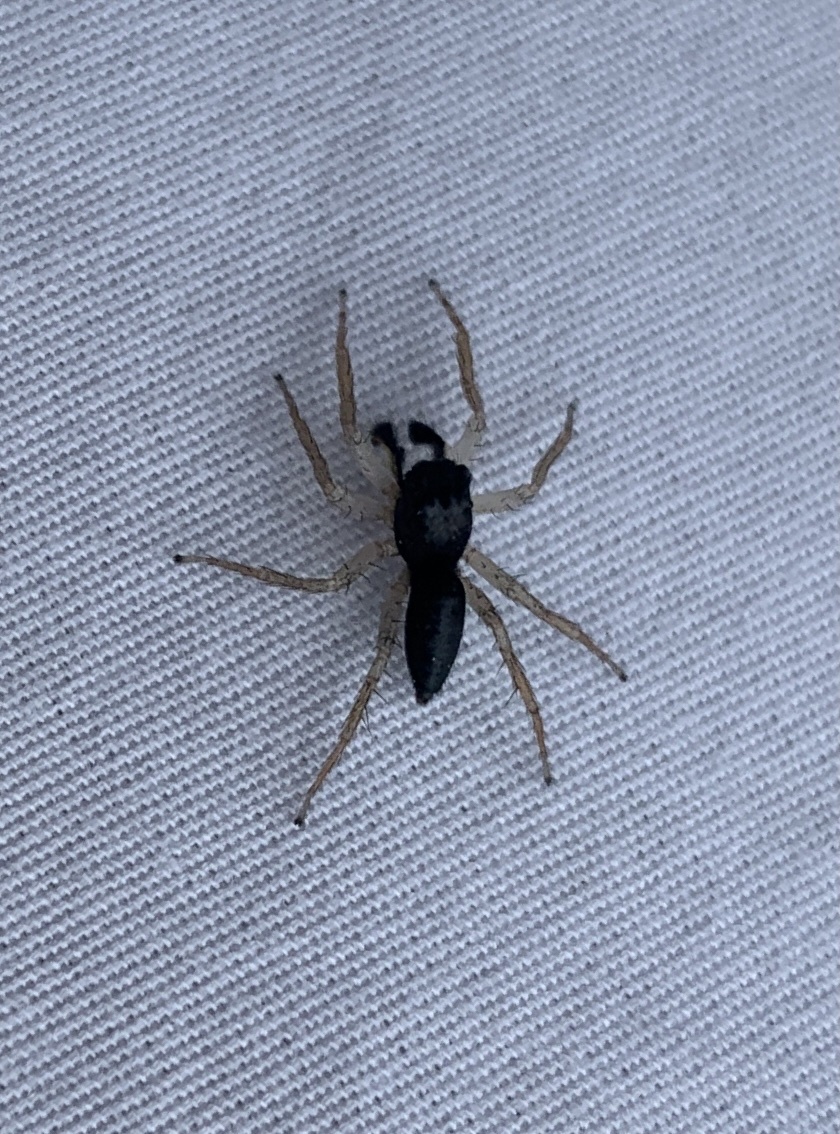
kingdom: Animalia
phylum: Arthropoda
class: Arachnida
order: Araneae
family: Salticidae
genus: Maevia
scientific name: Maevia inclemens
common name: Dimorphic jumper
